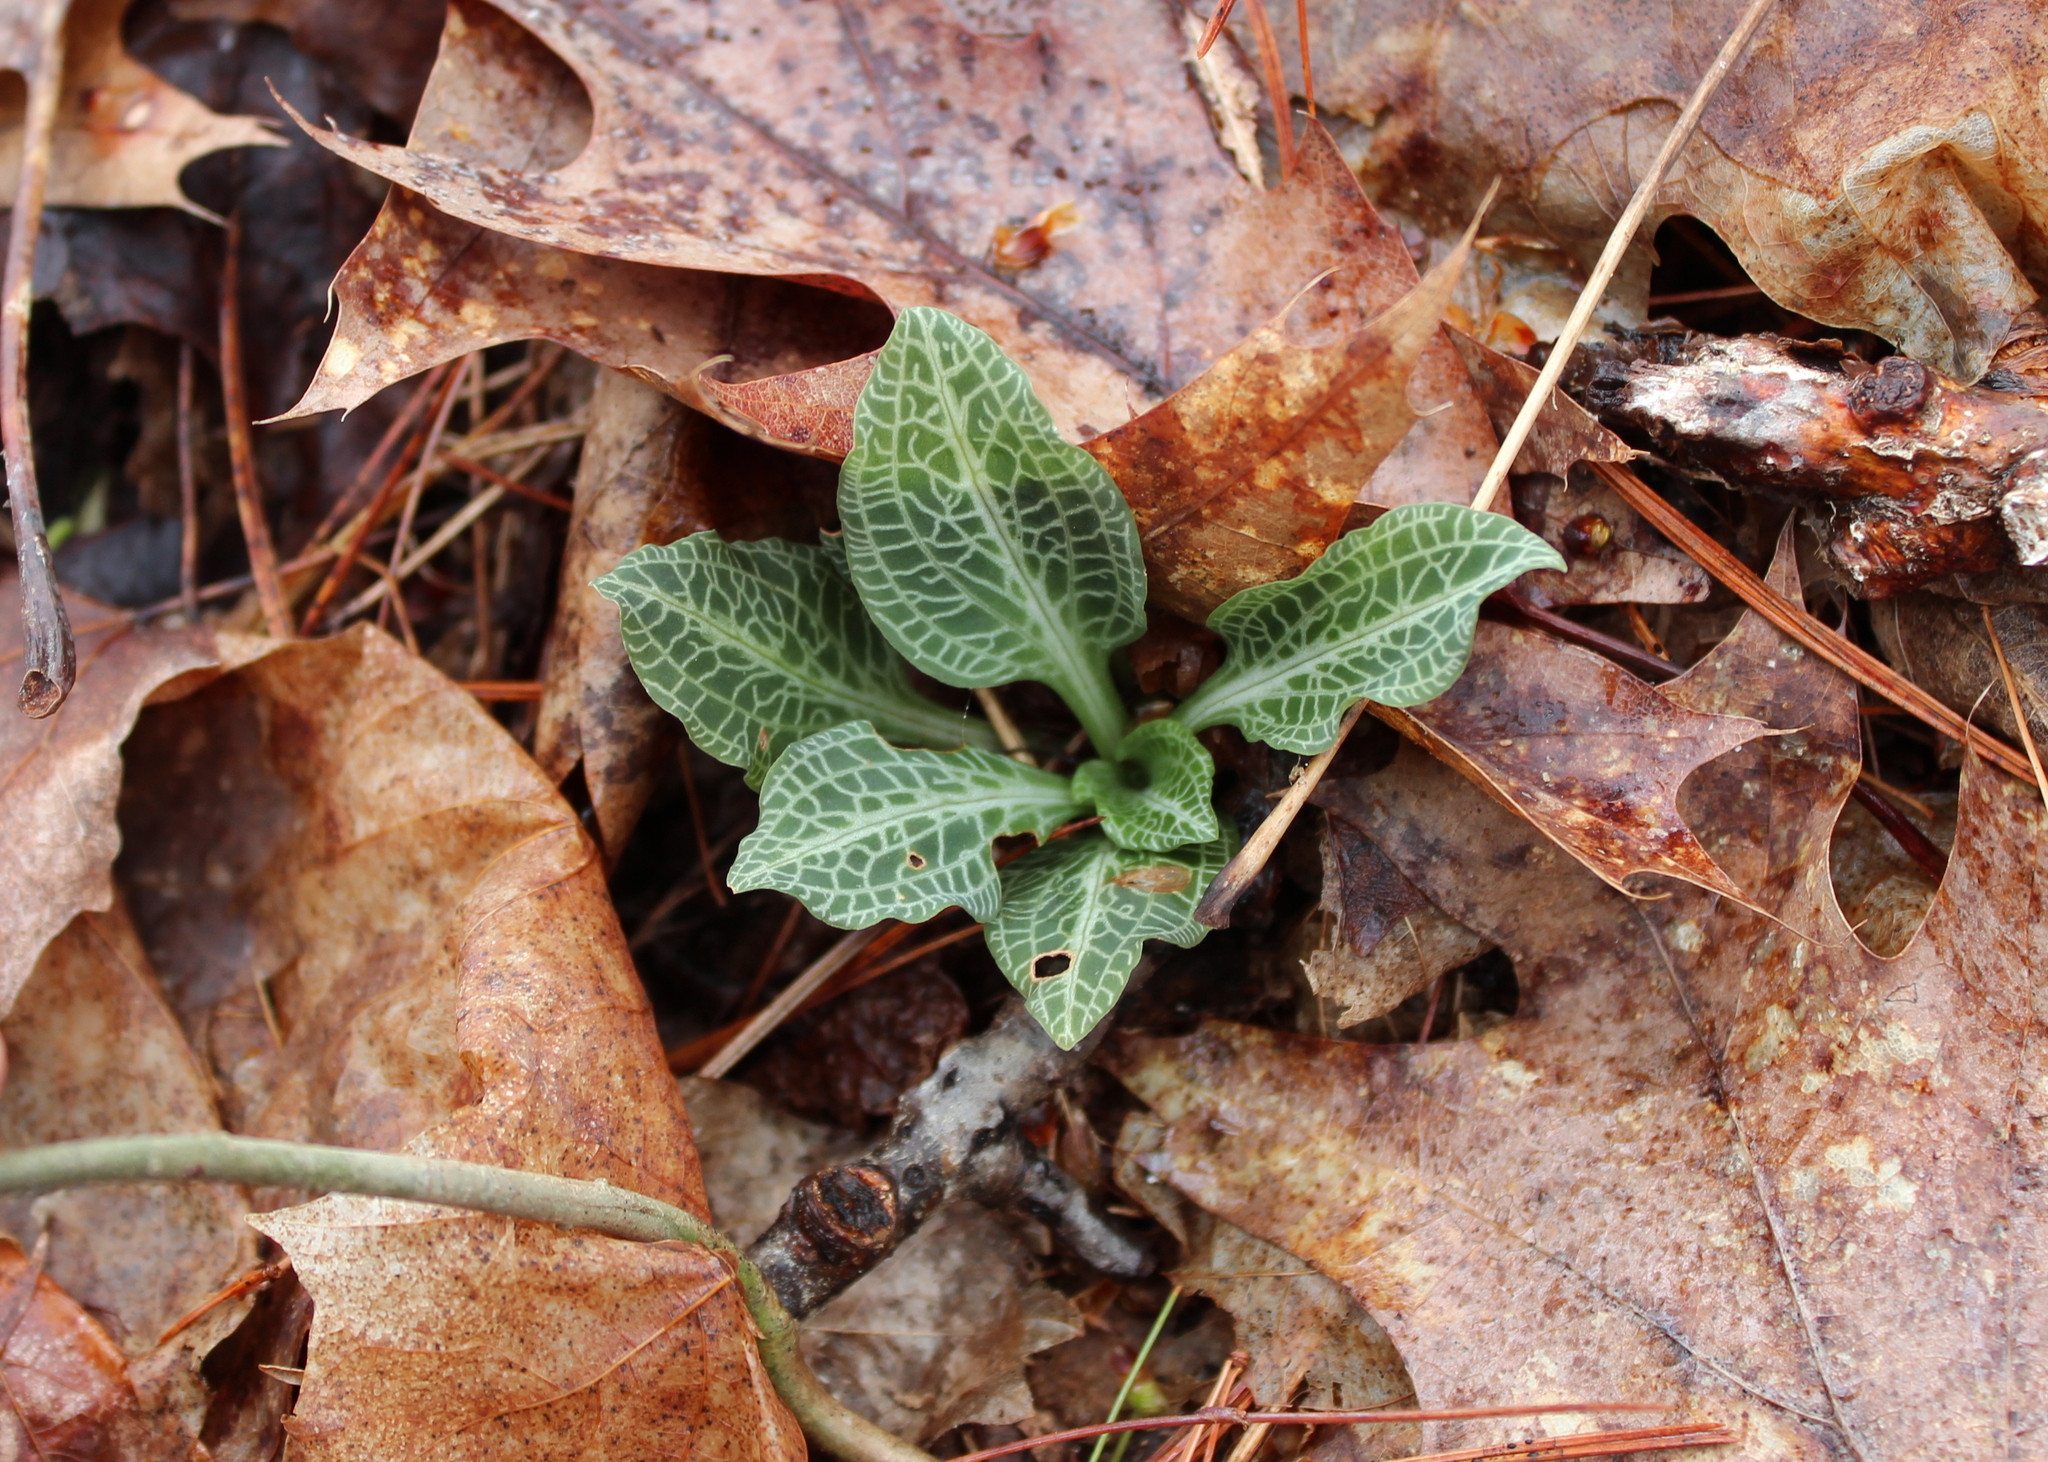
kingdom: Plantae
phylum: Tracheophyta
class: Liliopsida
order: Asparagales
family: Orchidaceae
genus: Goodyera
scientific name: Goodyera pubescens
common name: Downy rattlesnake-plantain
